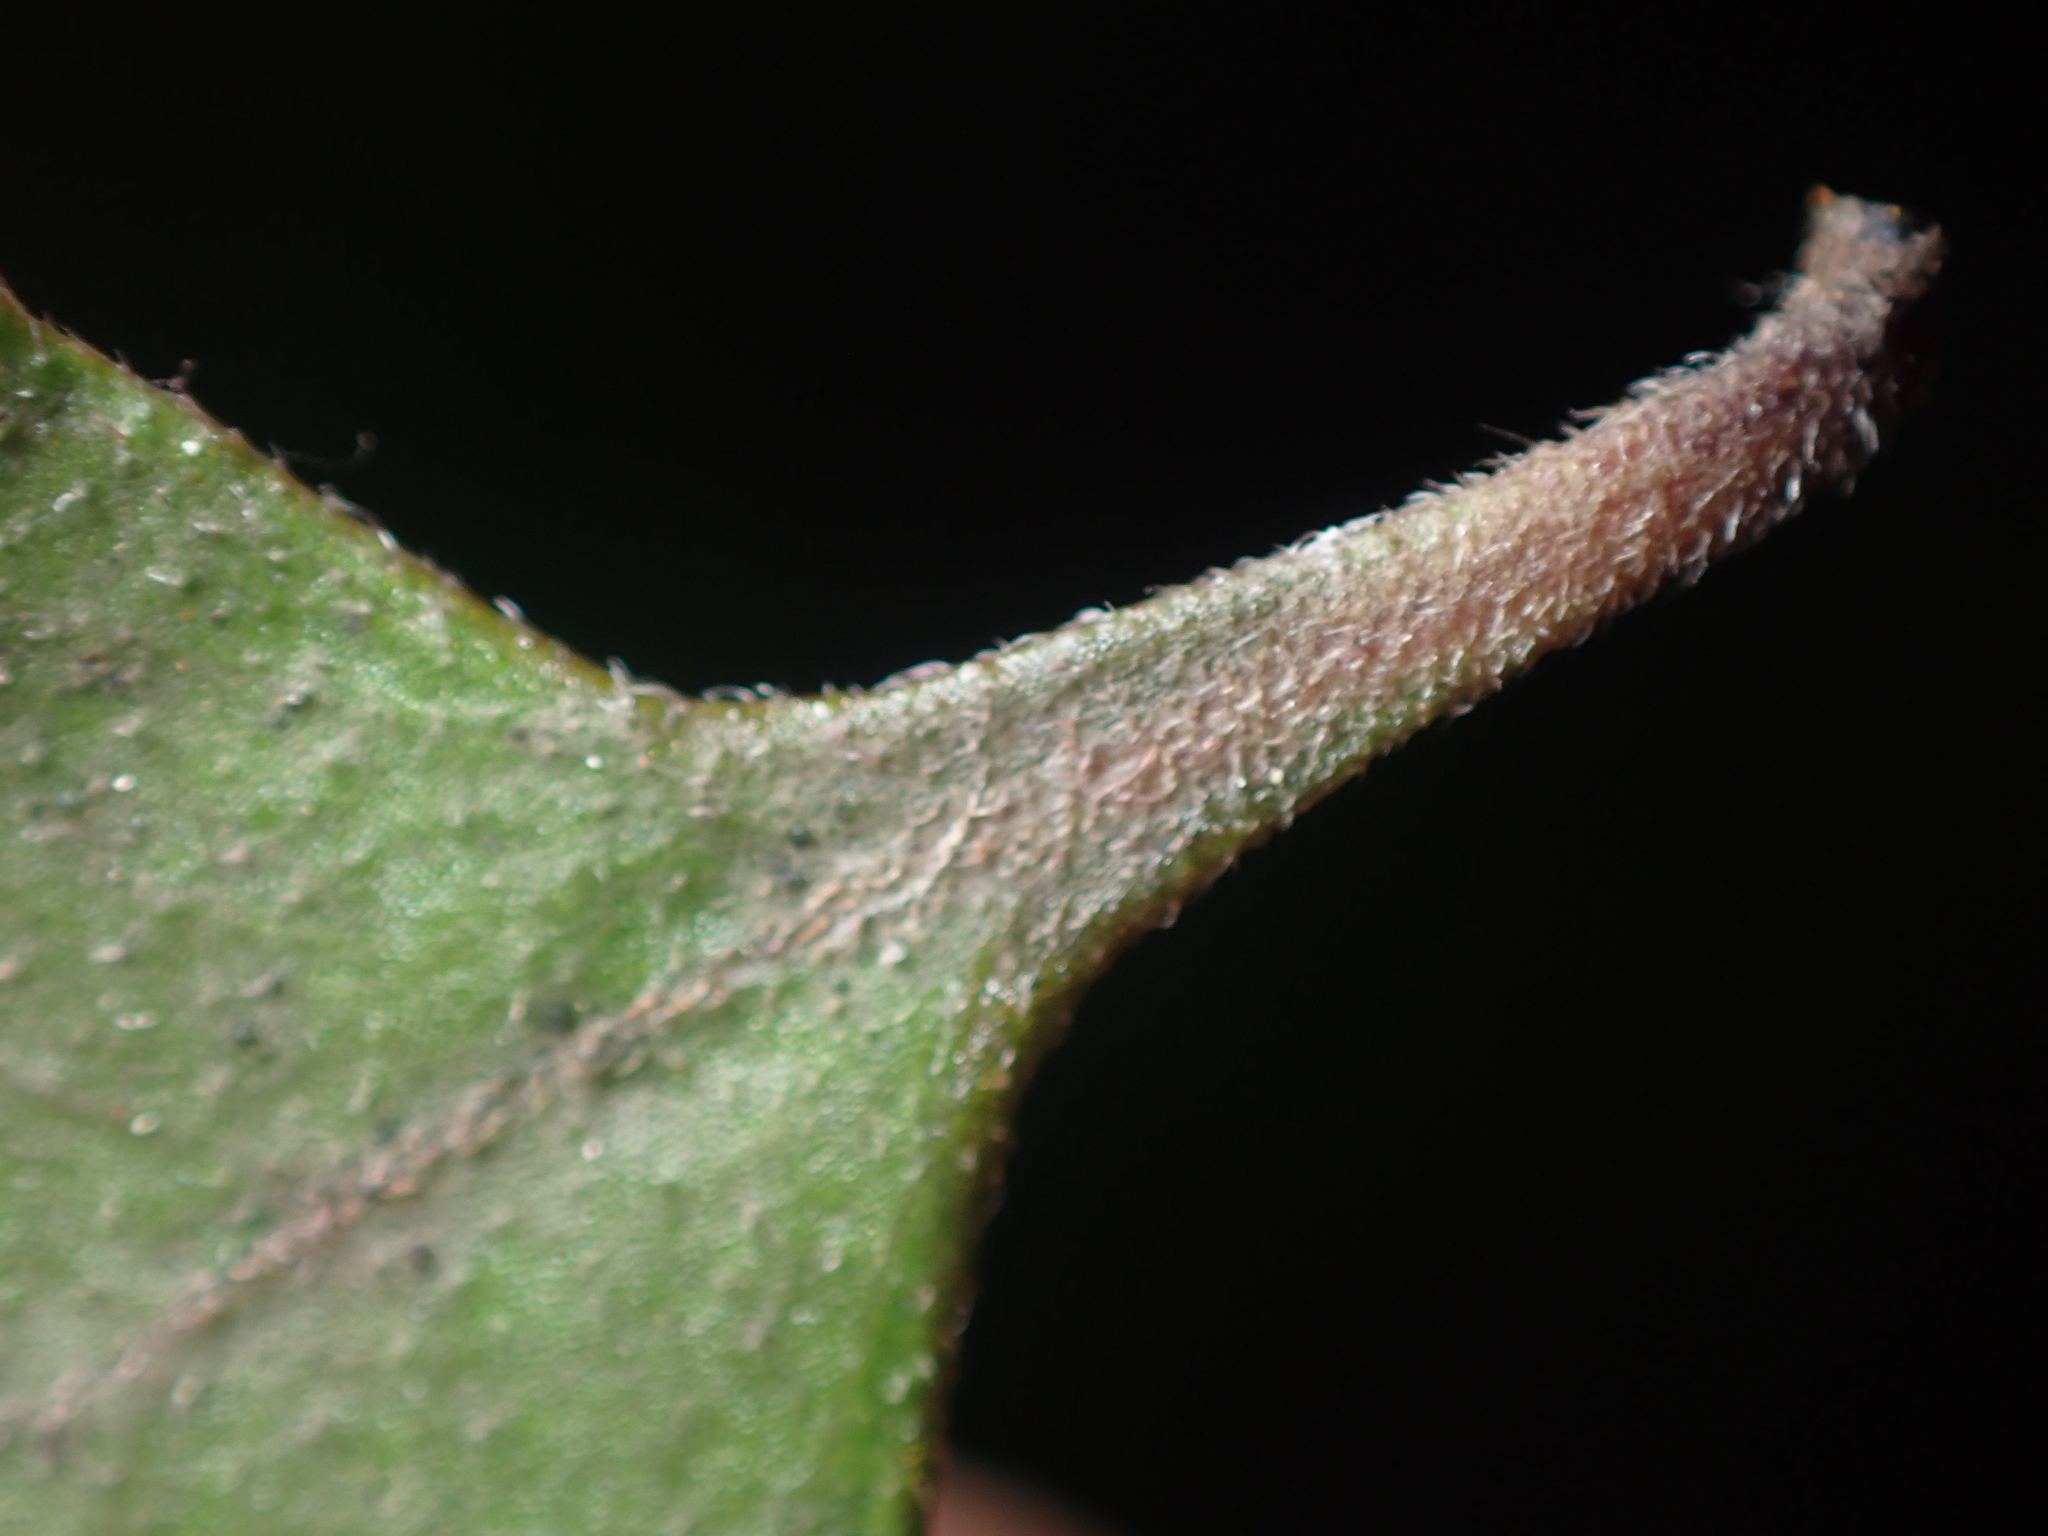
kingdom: Plantae
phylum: Tracheophyta
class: Magnoliopsida
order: Gentianales
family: Rubiaceae
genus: Coprosma
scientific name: Coprosma crassifolia
